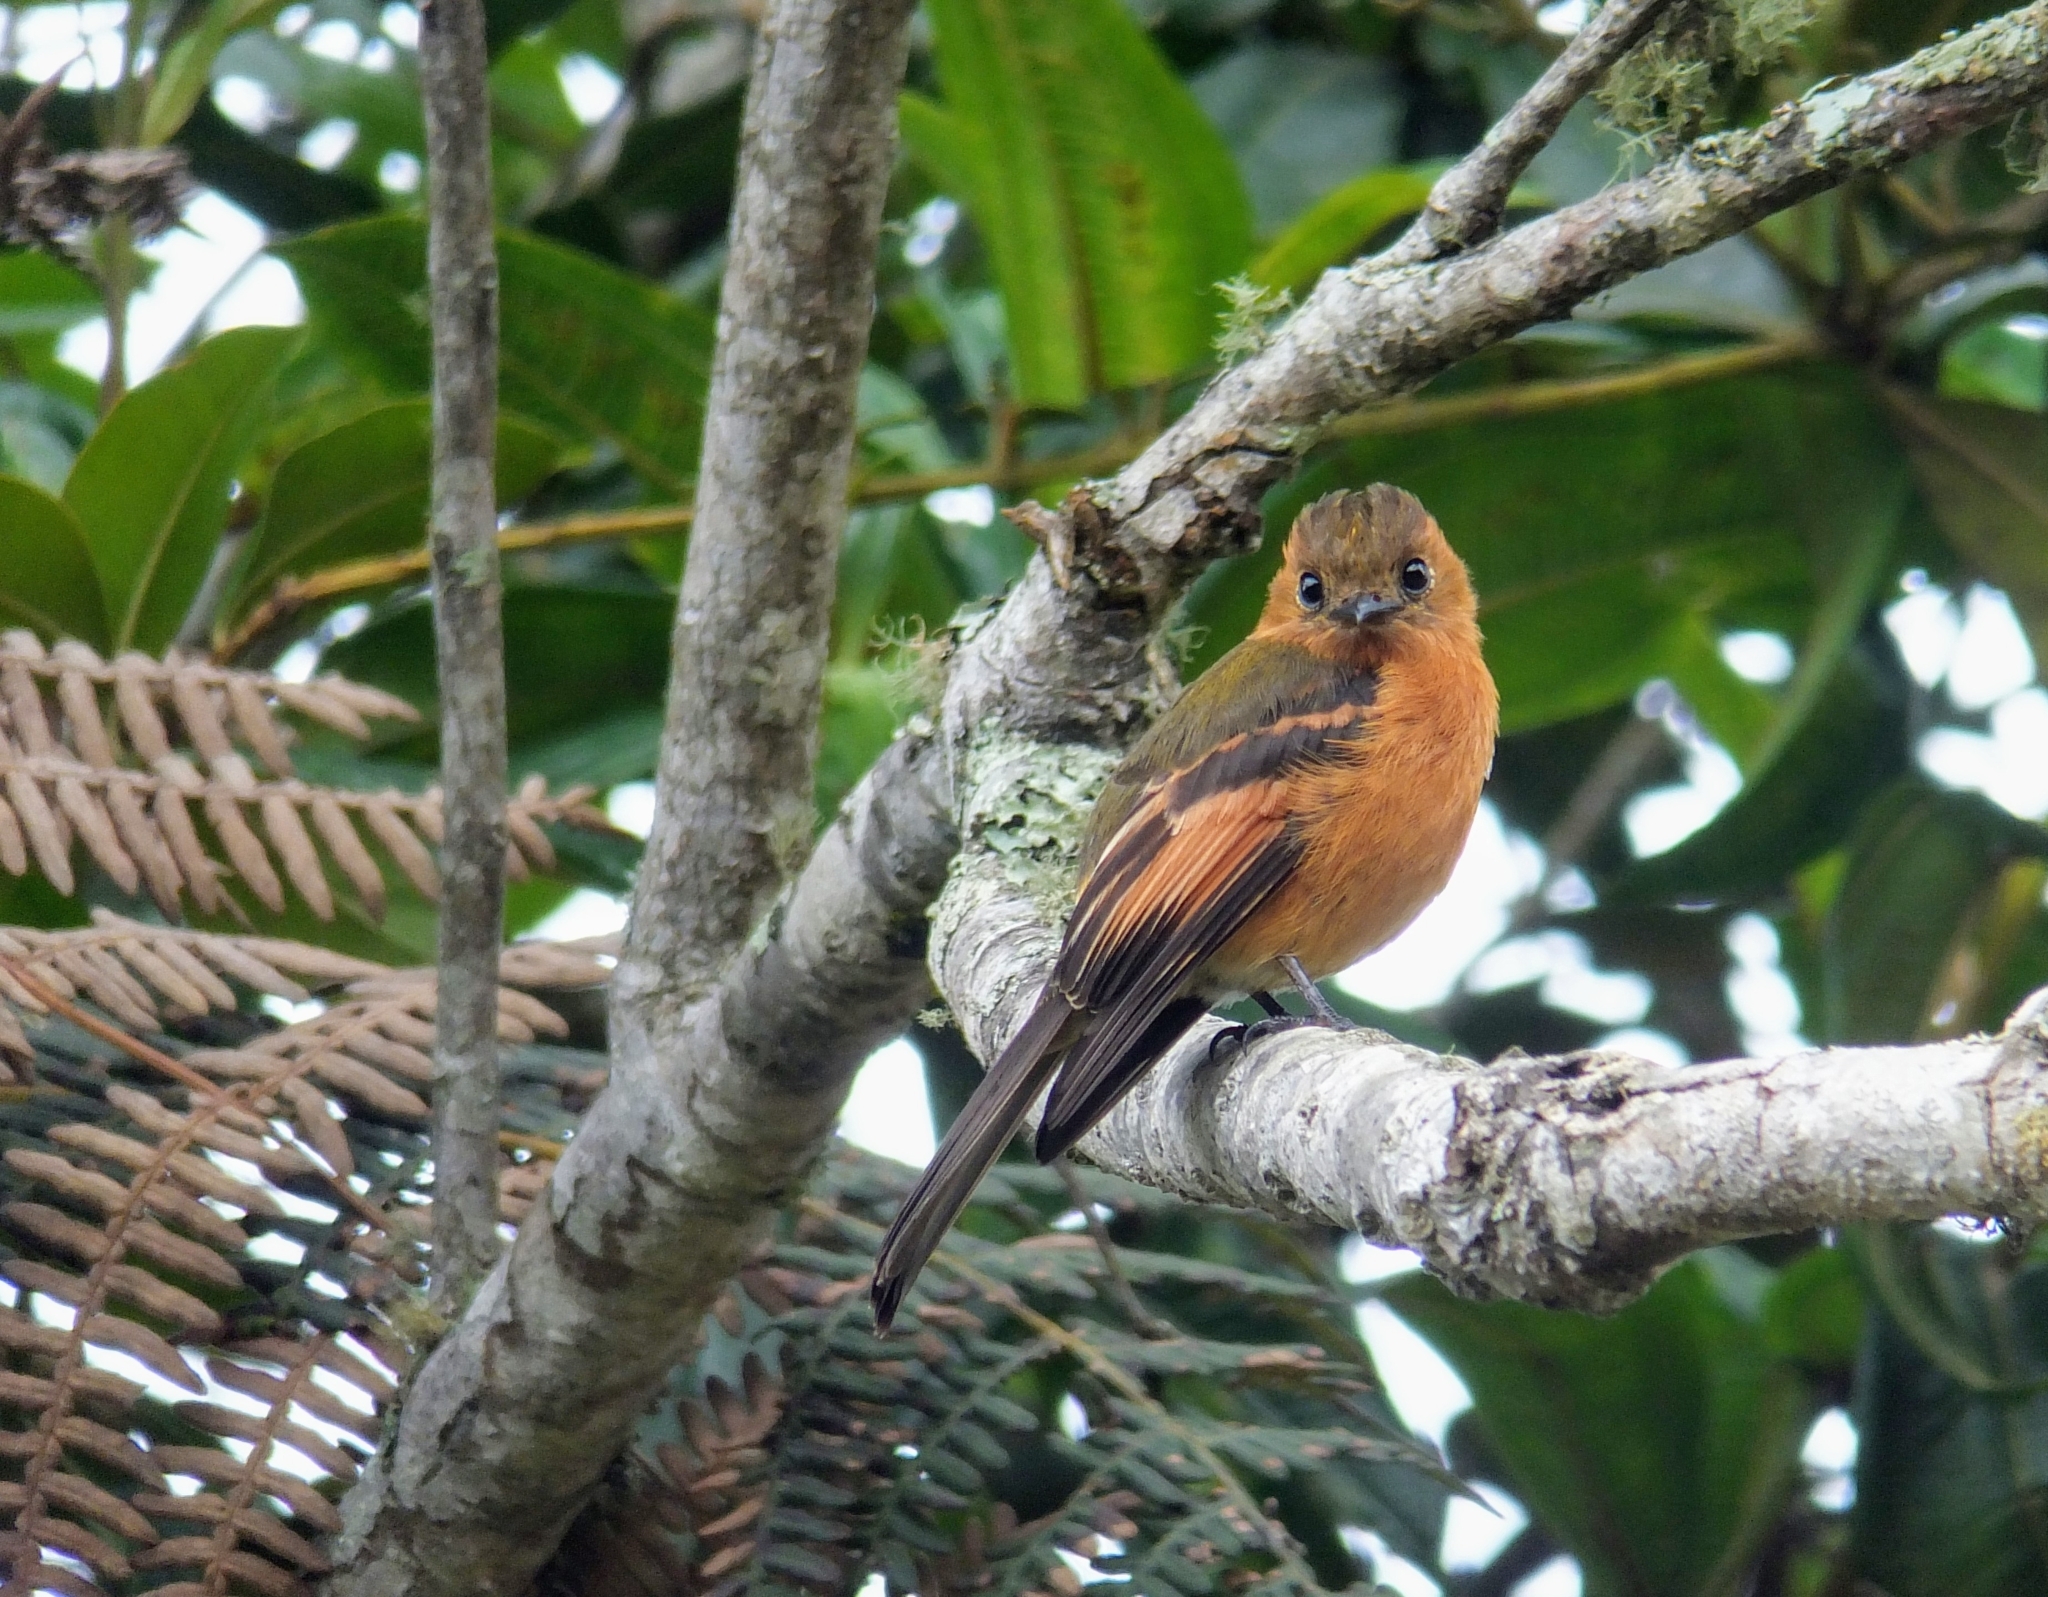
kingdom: Animalia
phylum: Chordata
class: Aves
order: Passeriformes
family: Tyrannidae
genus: Pyrrhomyias
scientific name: Pyrrhomyias cinnamomeus
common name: Cinnamon flycatcher
